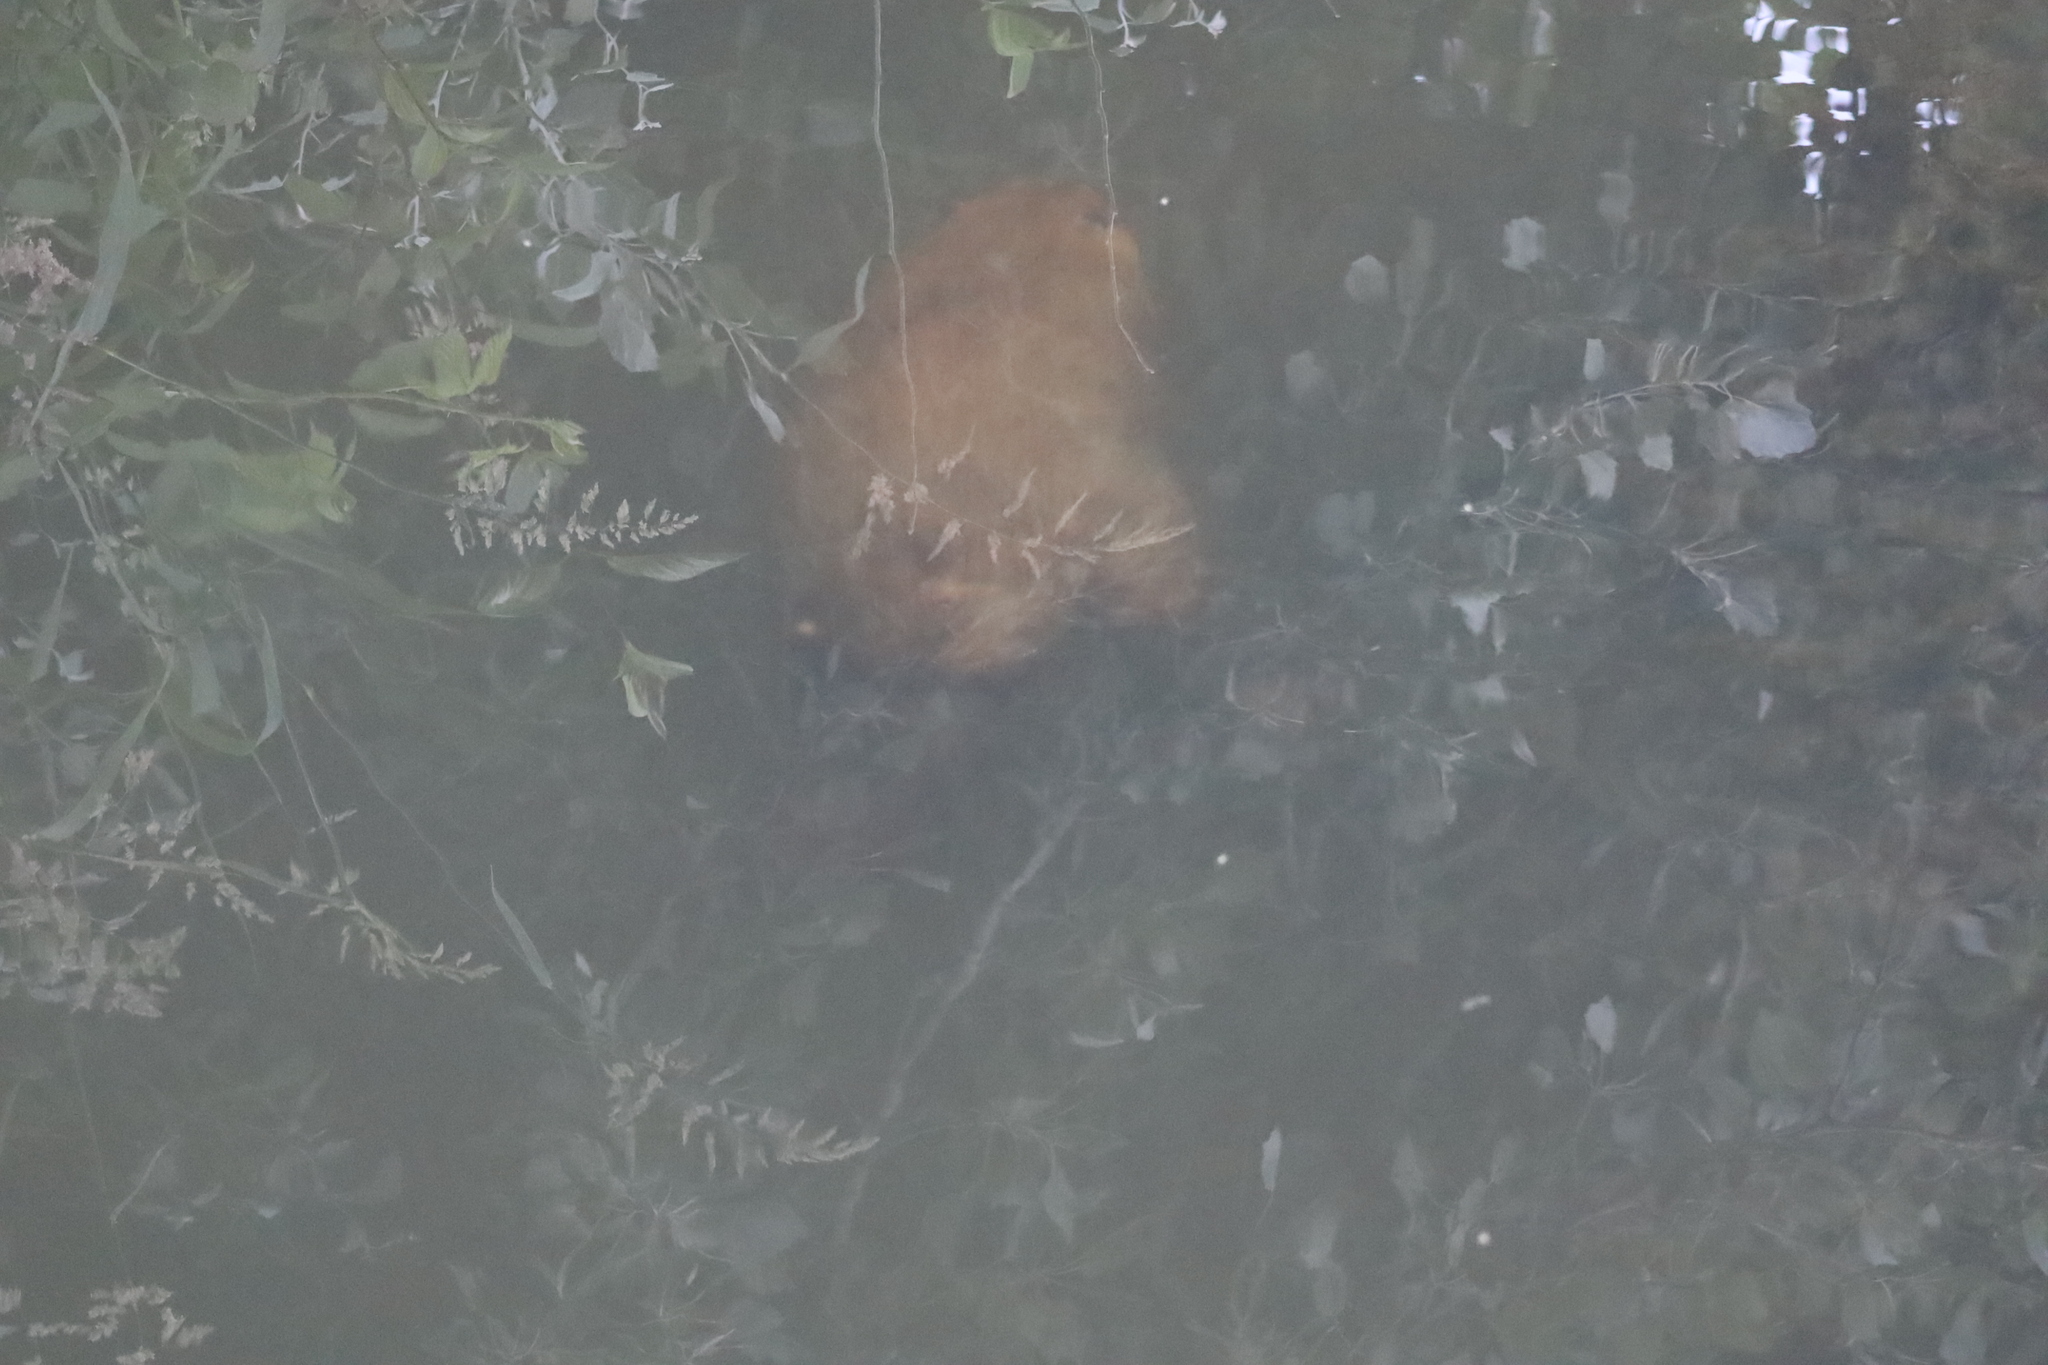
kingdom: Animalia
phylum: Chordata
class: Mammalia
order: Rodentia
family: Castoridae
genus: Castor
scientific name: Castor canadensis
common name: American beaver
